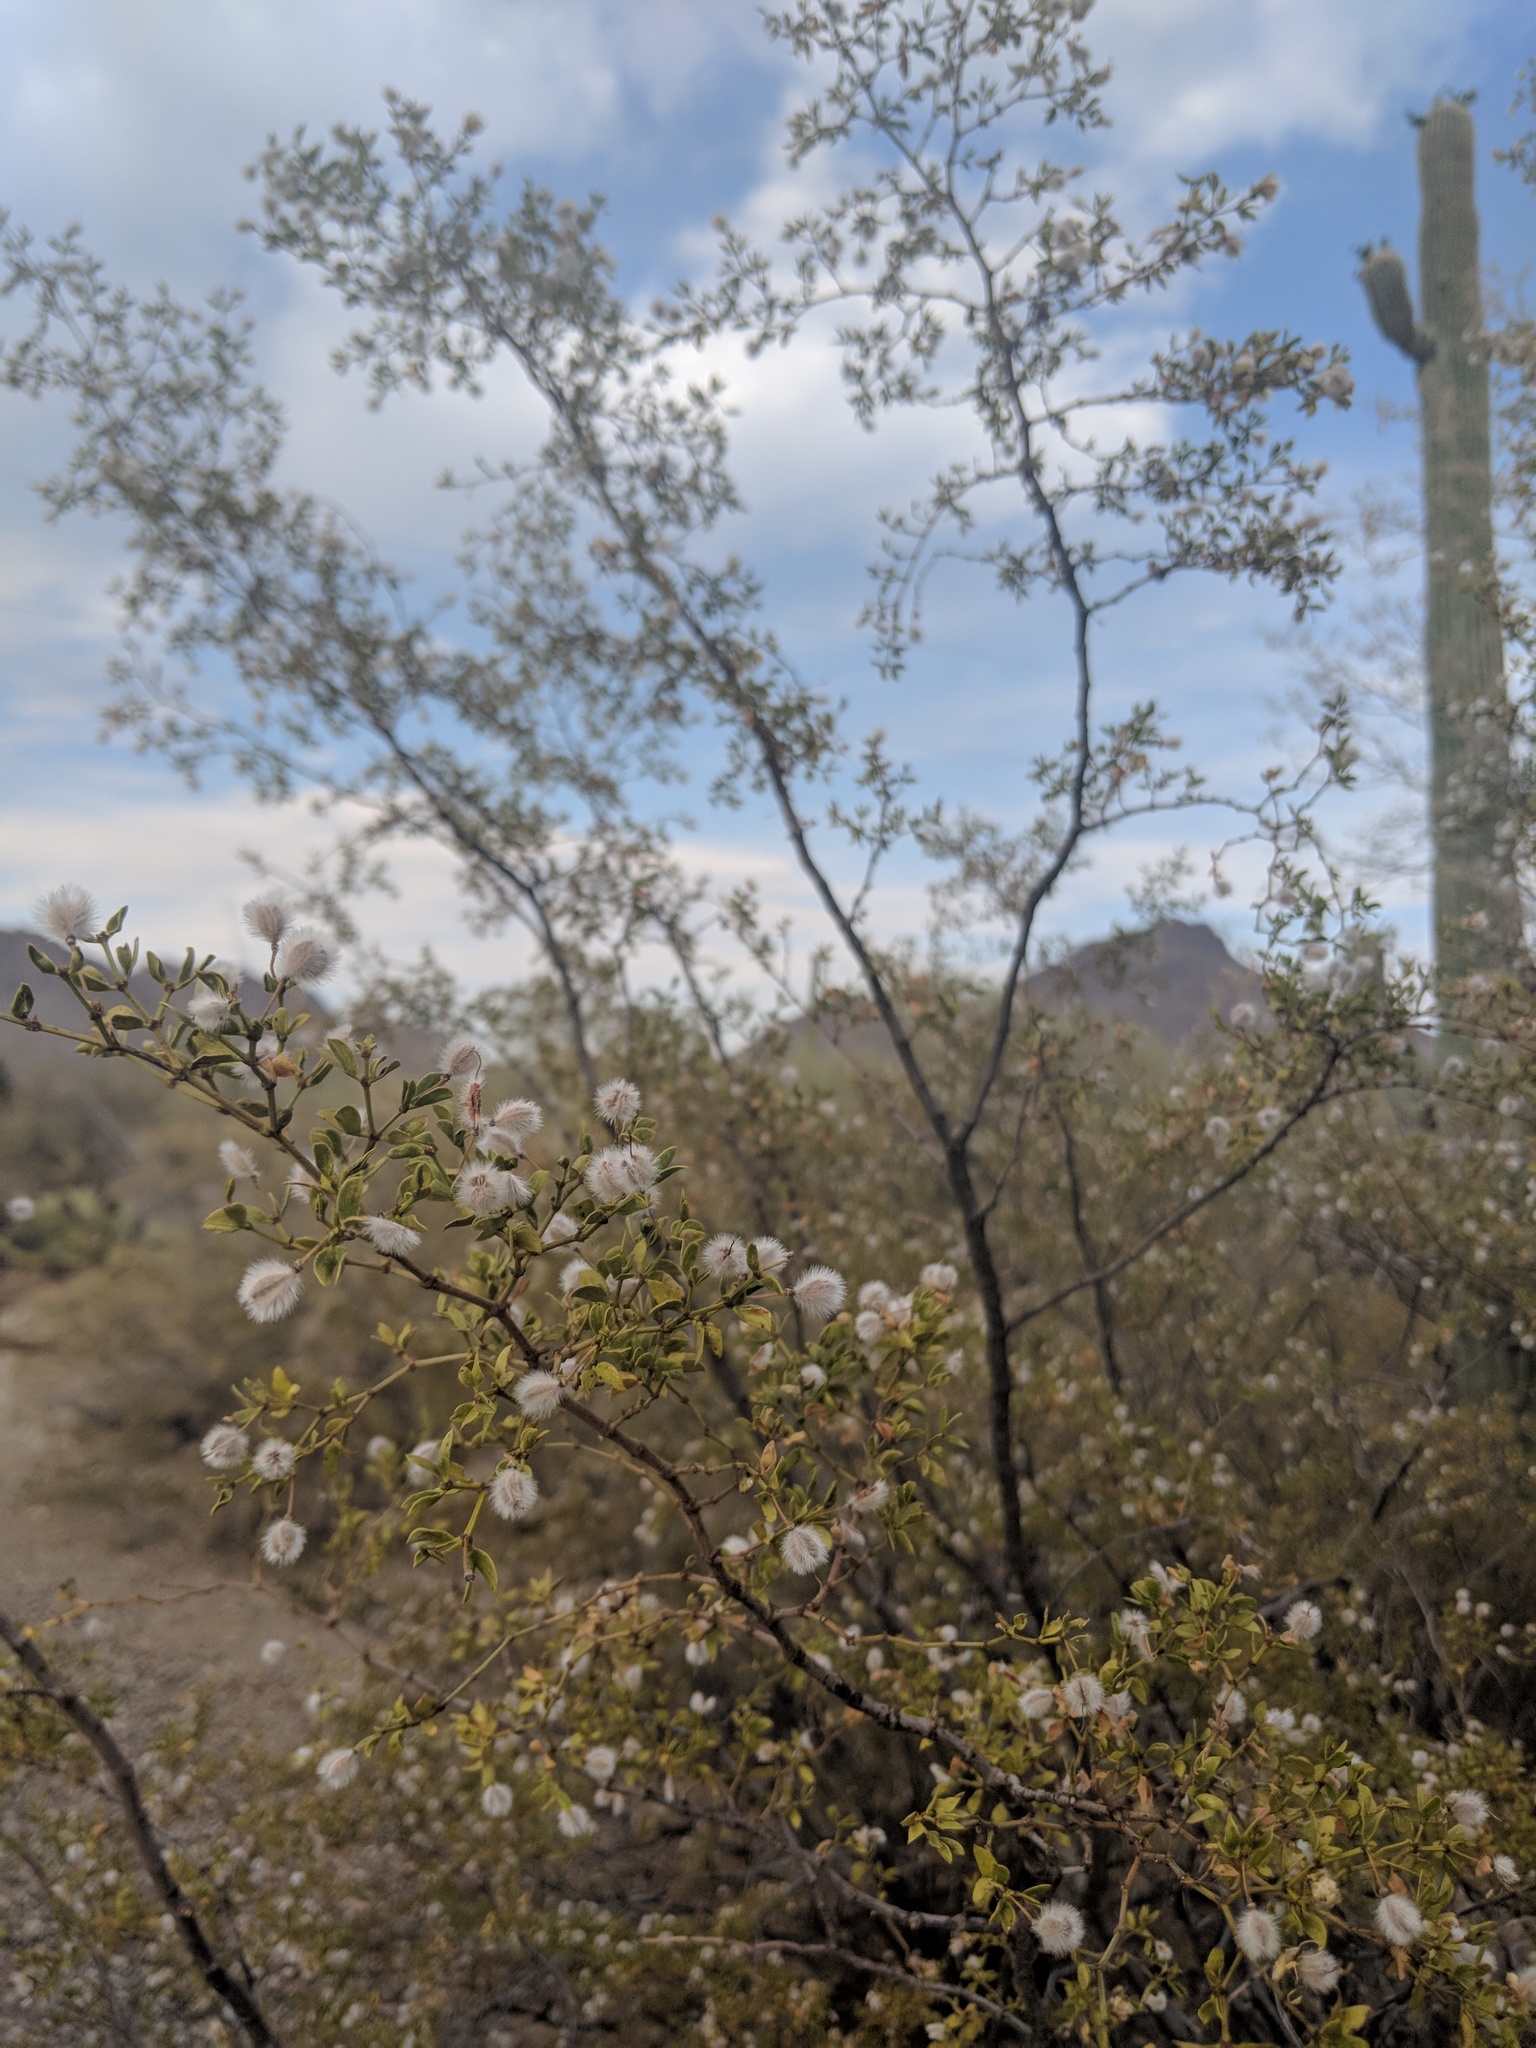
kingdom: Plantae
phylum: Tracheophyta
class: Magnoliopsida
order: Zygophyllales
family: Zygophyllaceae
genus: Larrea
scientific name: Larrea tridentata
